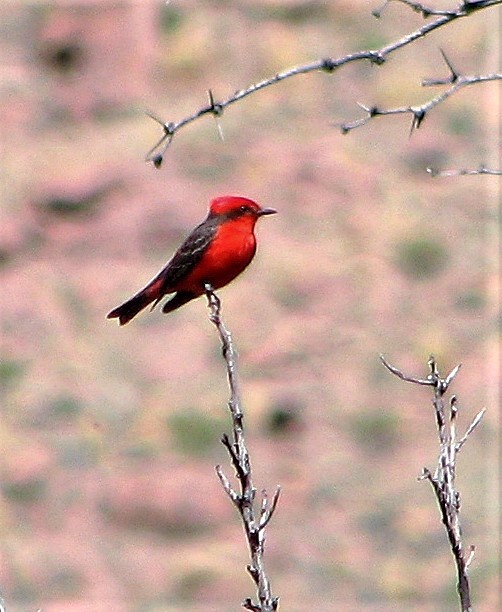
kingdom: Animalia
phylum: Chordata
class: Aves
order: Passeriformes
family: Tyrannidae
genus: Pyrocephalus
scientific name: Pyrocephalus rubinus
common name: Vermilion flycatcher
